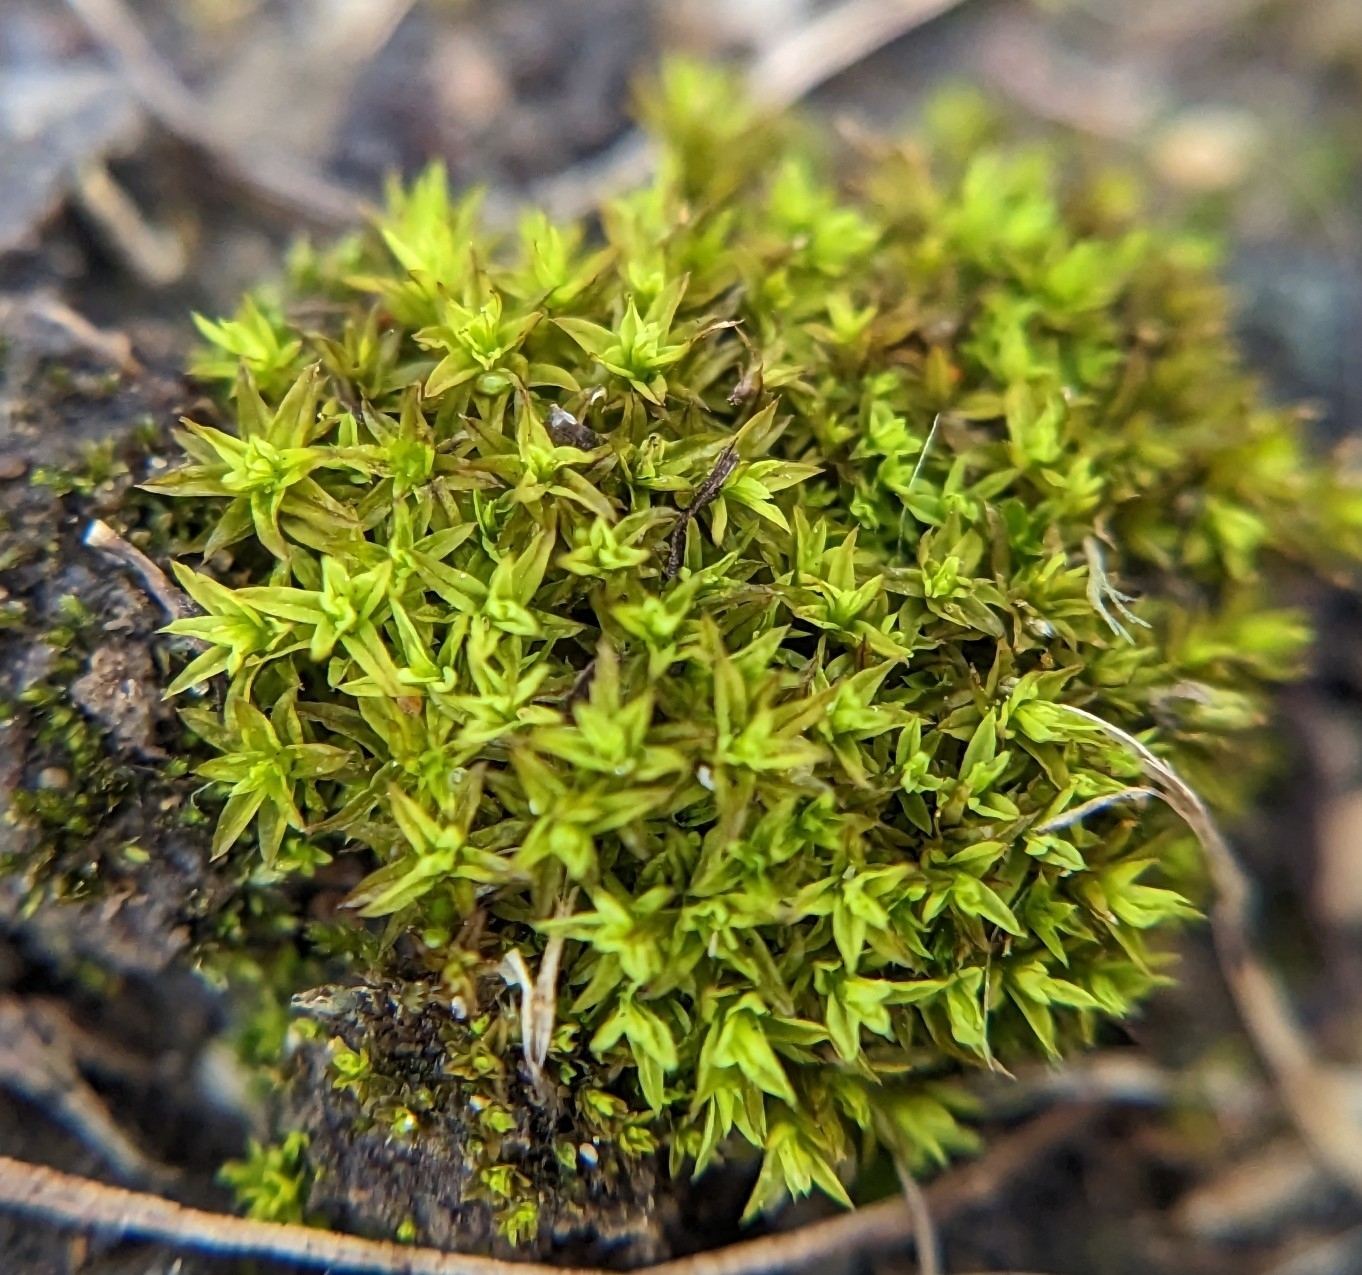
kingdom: Plantae
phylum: Bryophyta
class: Bryopsida
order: Pottiales
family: Pottiaceae
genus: Barbula
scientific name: Barbula unguiculata
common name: Prickly beard moss
